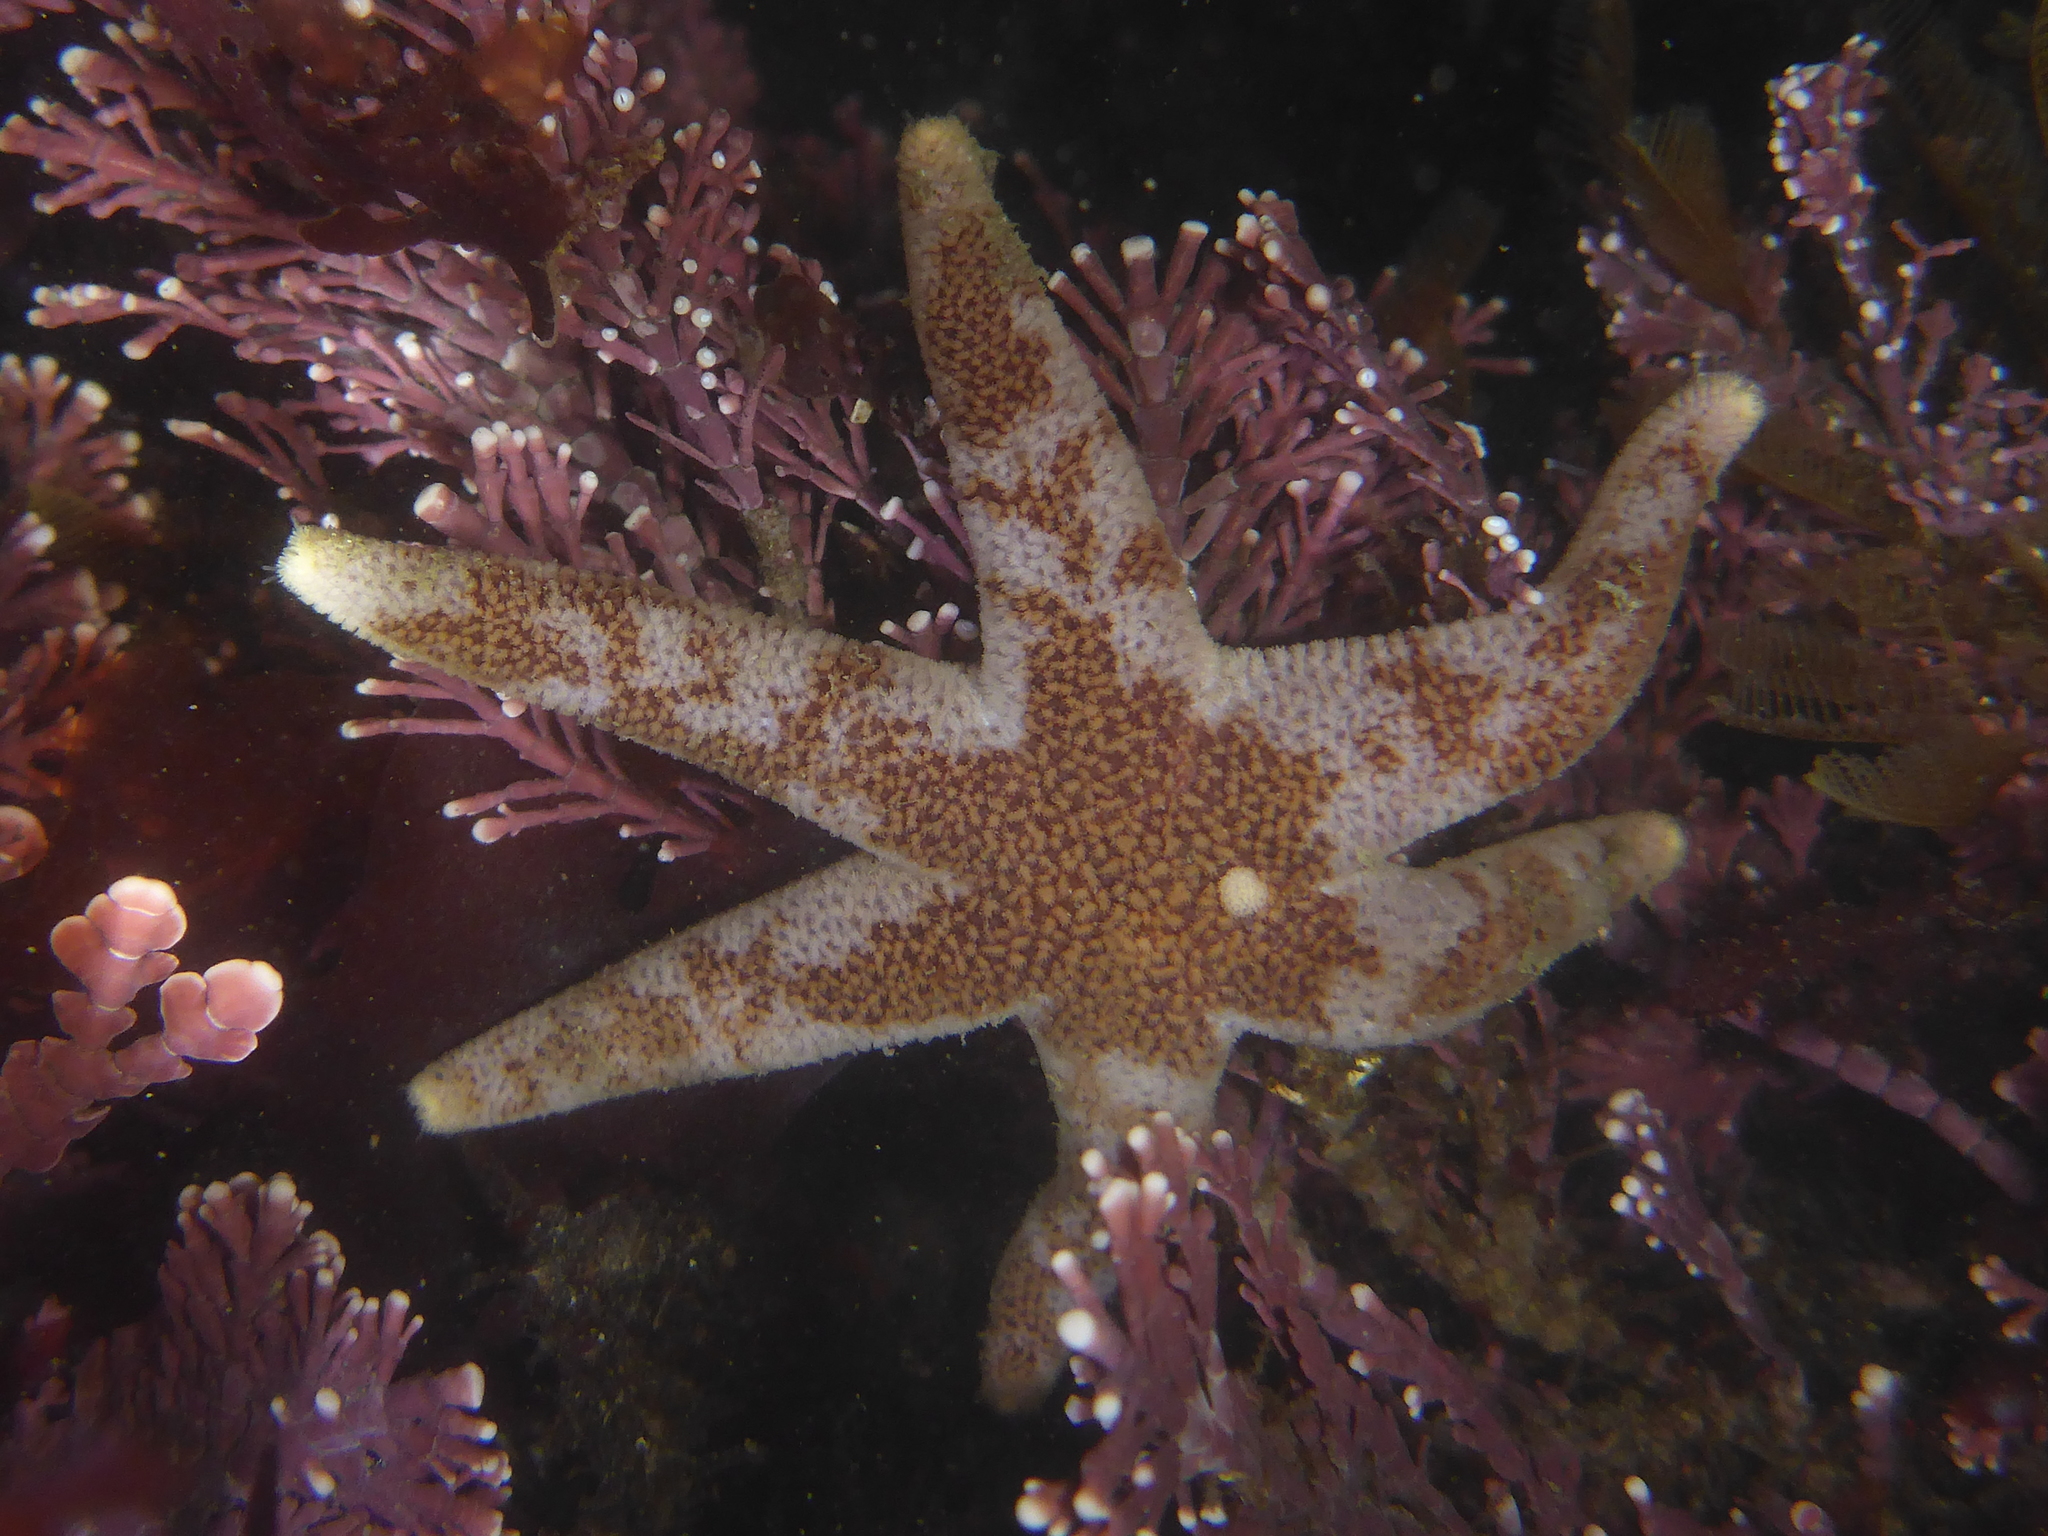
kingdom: Animalia
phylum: Echinodermata
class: Asteroidea
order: Spinulosida
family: Echinasteridae
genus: Henricia
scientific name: Henricia pumila
